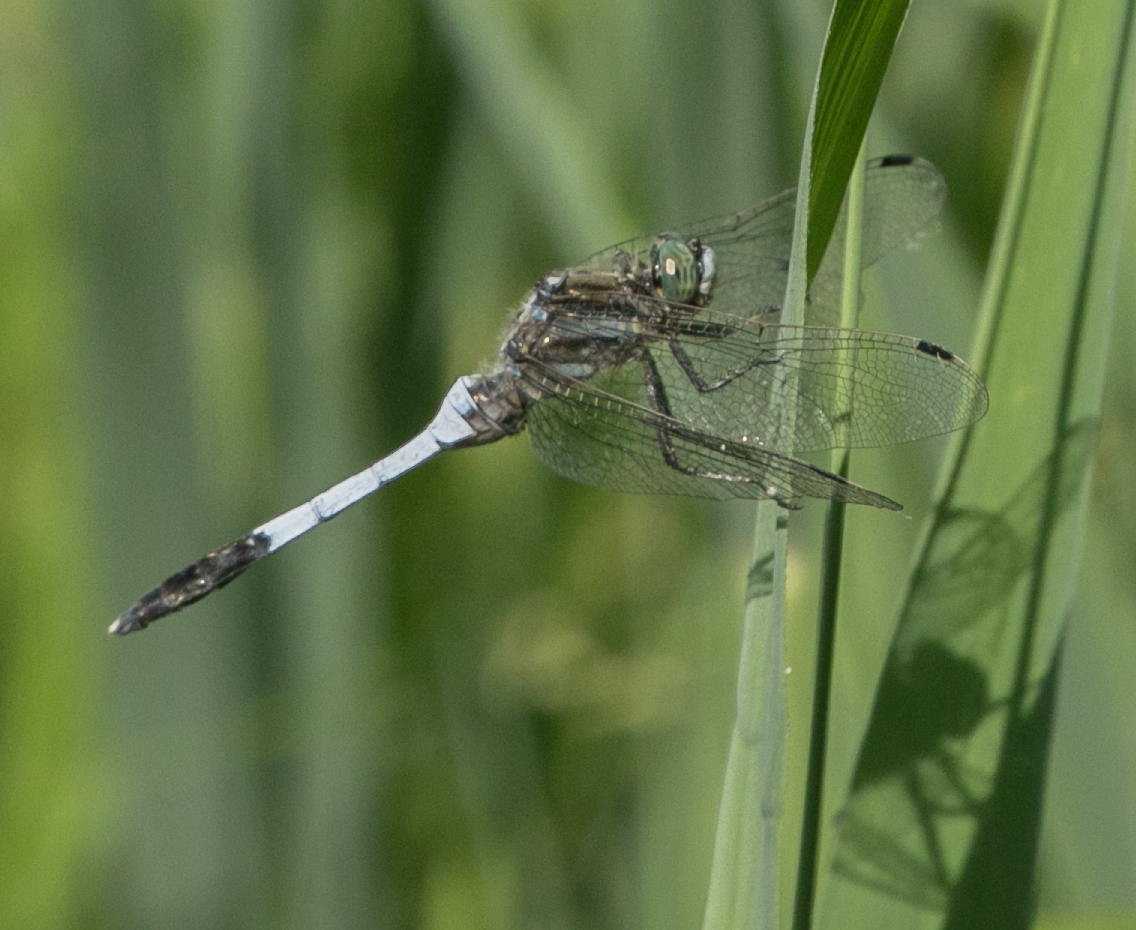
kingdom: Animalia
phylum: Arthropoda
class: Insecta
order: Odonata
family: Libellulidae
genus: Orthetrum
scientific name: Orthetrum albistylum
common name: White-tailed skimmer
